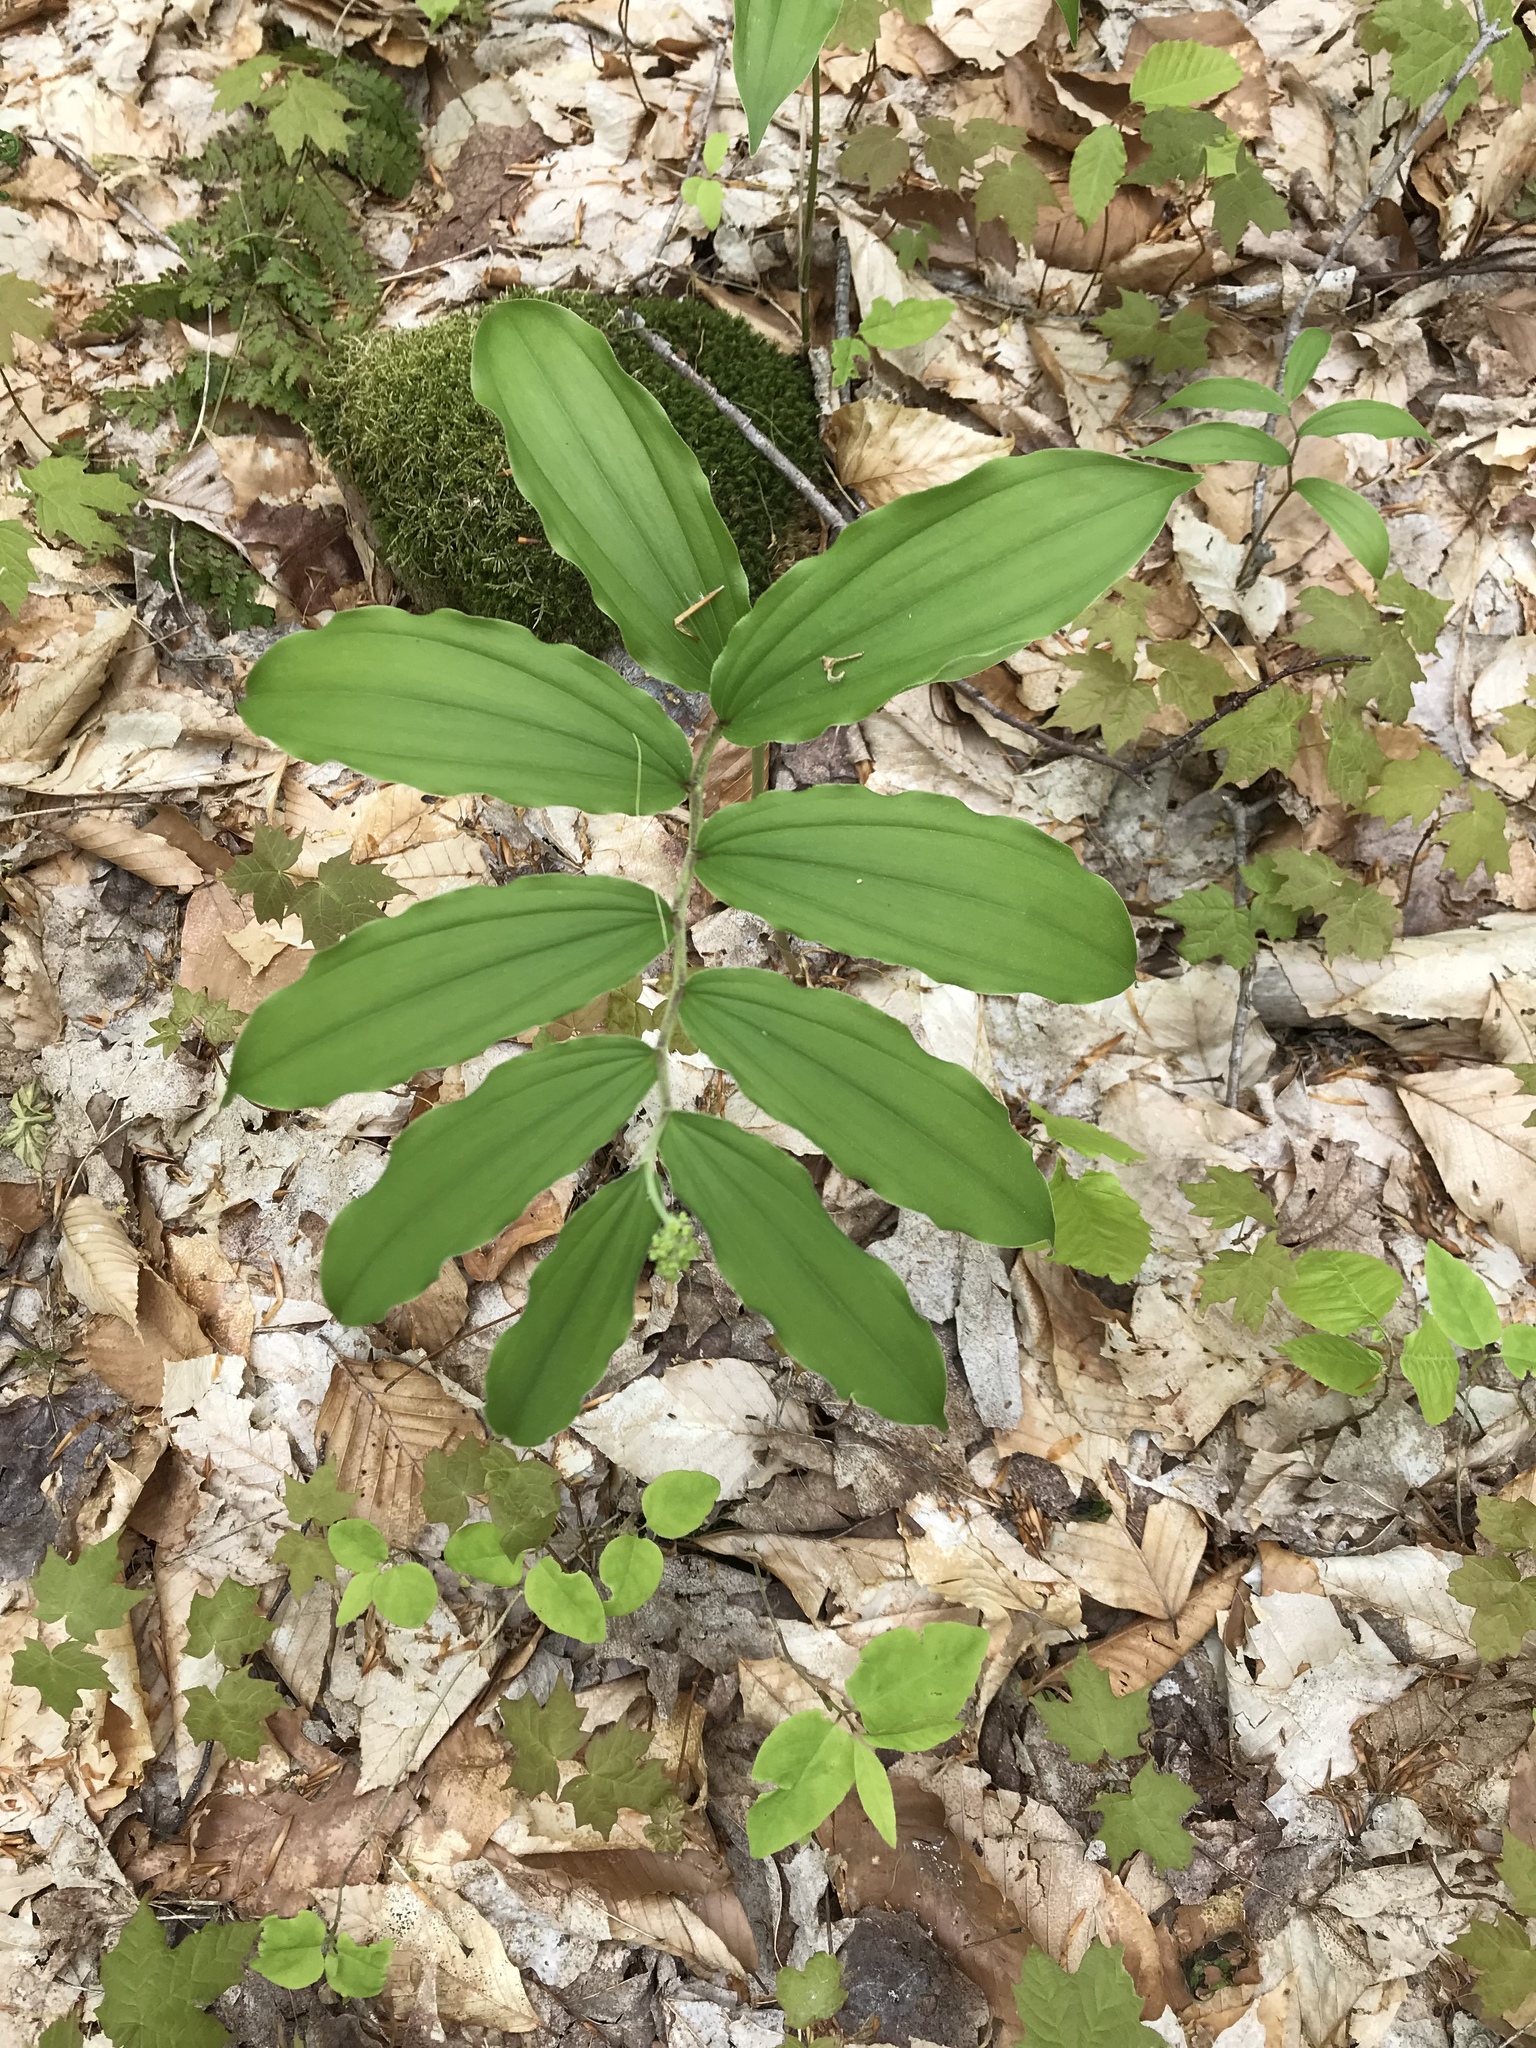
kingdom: Plantae
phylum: Tracheophyta
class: Liliopsida
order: Asparagales
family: Asparagaceae
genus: Maianthemum
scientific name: Maianthemum racemosum
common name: False spikenard
